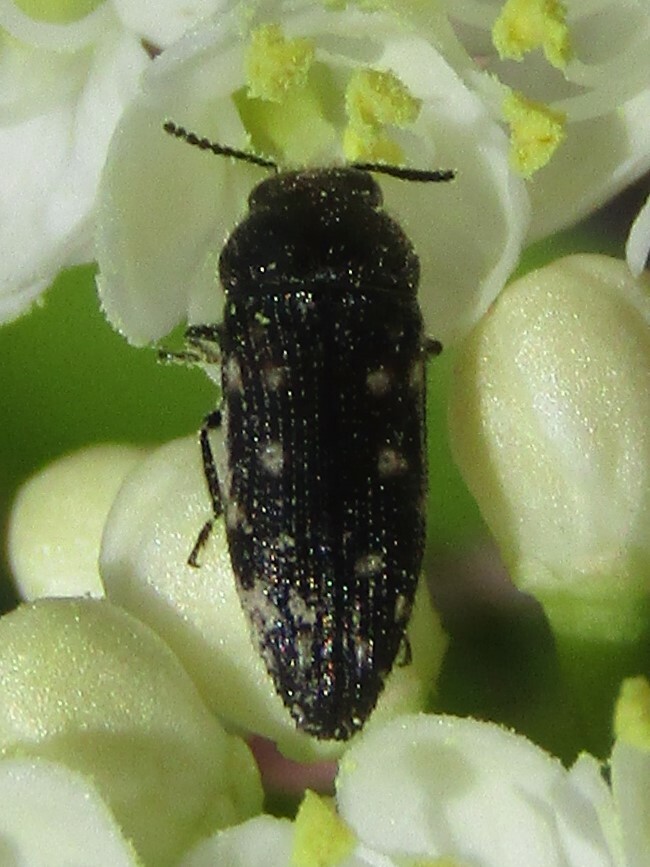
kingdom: Animalia
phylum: Arthropoda
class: Insecta
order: Coleoptera
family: Buprestidae
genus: Acmaeodera
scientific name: Acmaeodera tubulus
